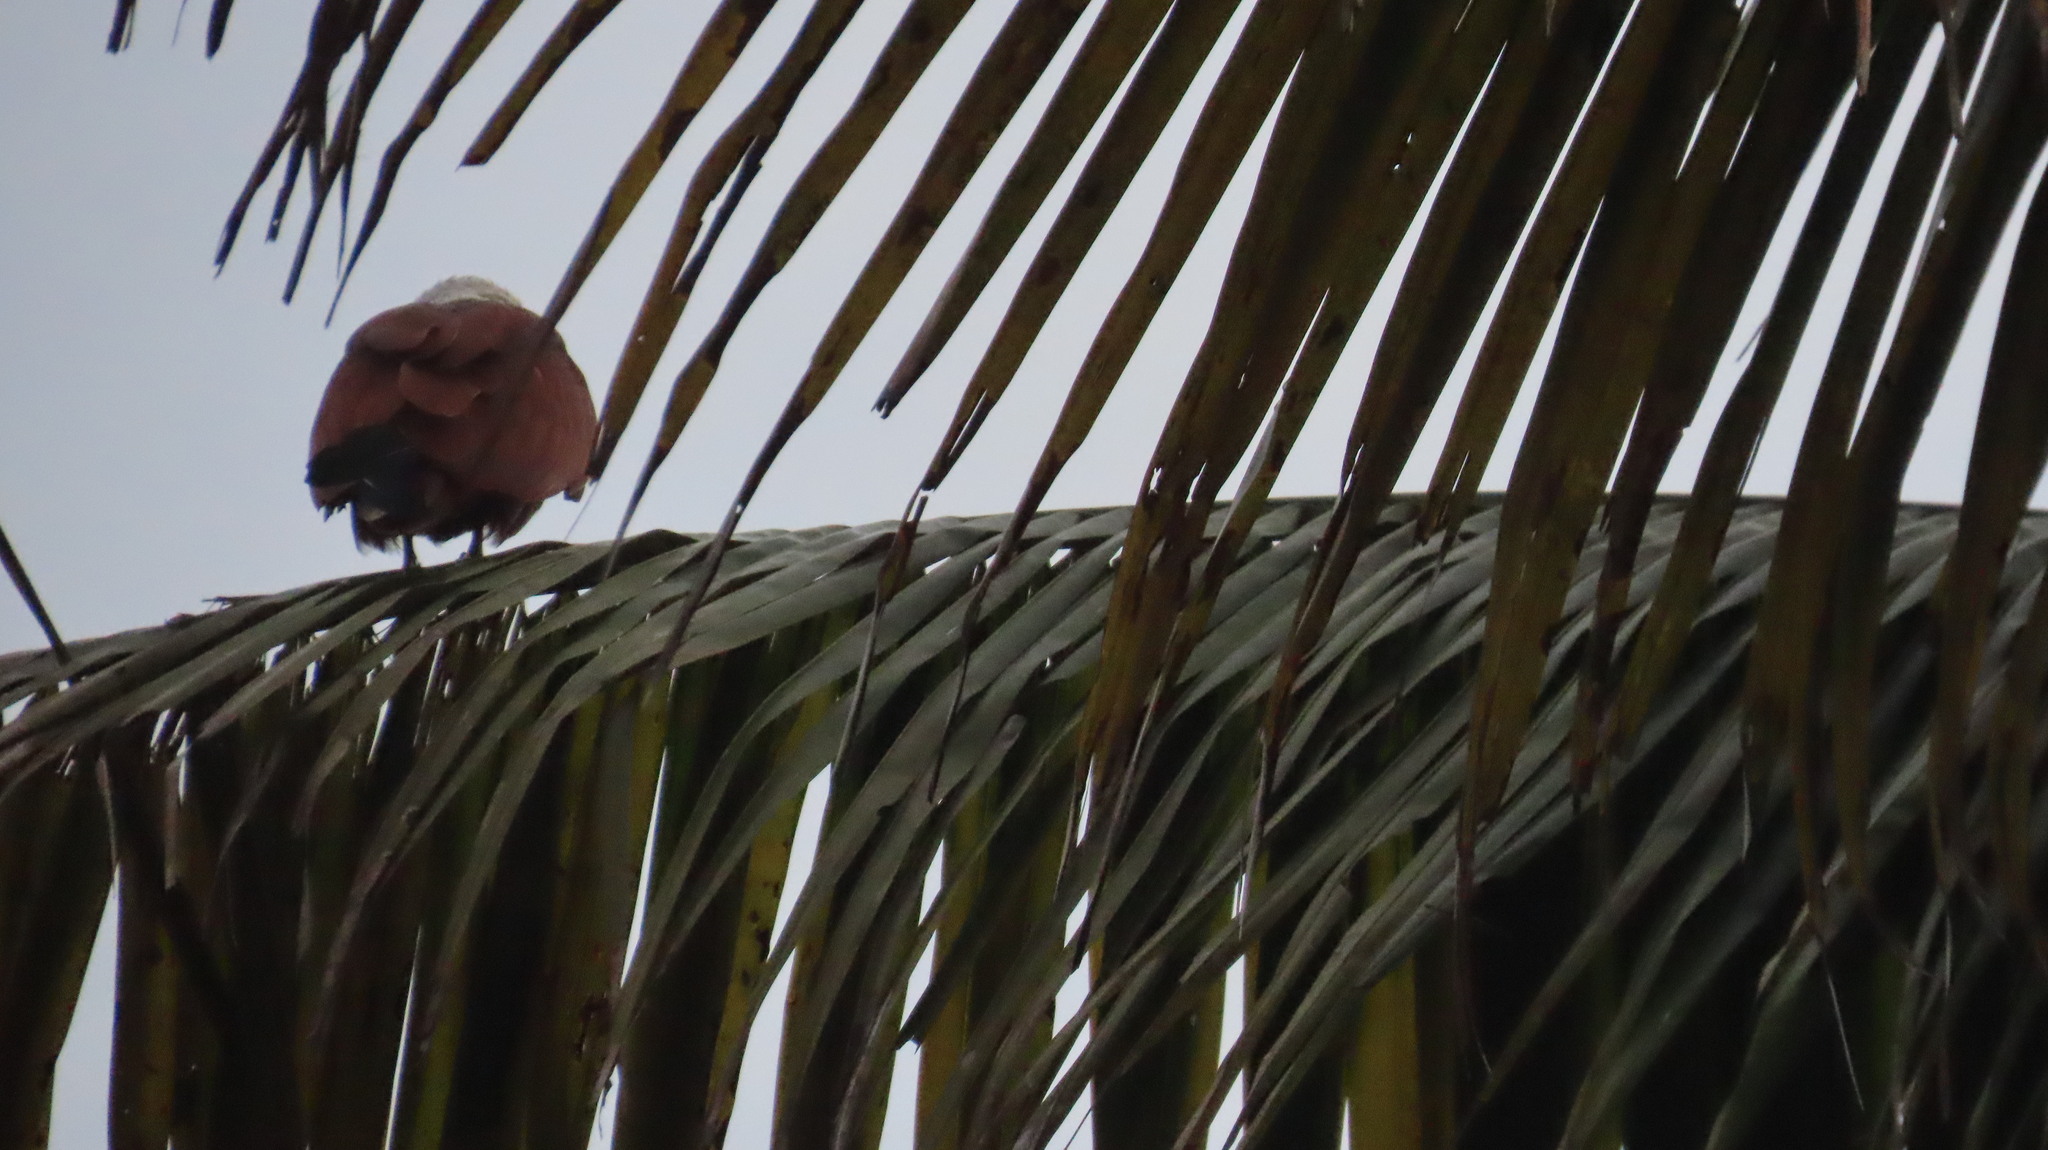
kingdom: Animalia
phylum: Chordata
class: Aves
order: Accipitriformes
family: Accipitridae
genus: Haliastur
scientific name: Haliastur indus
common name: Brahminy kite
